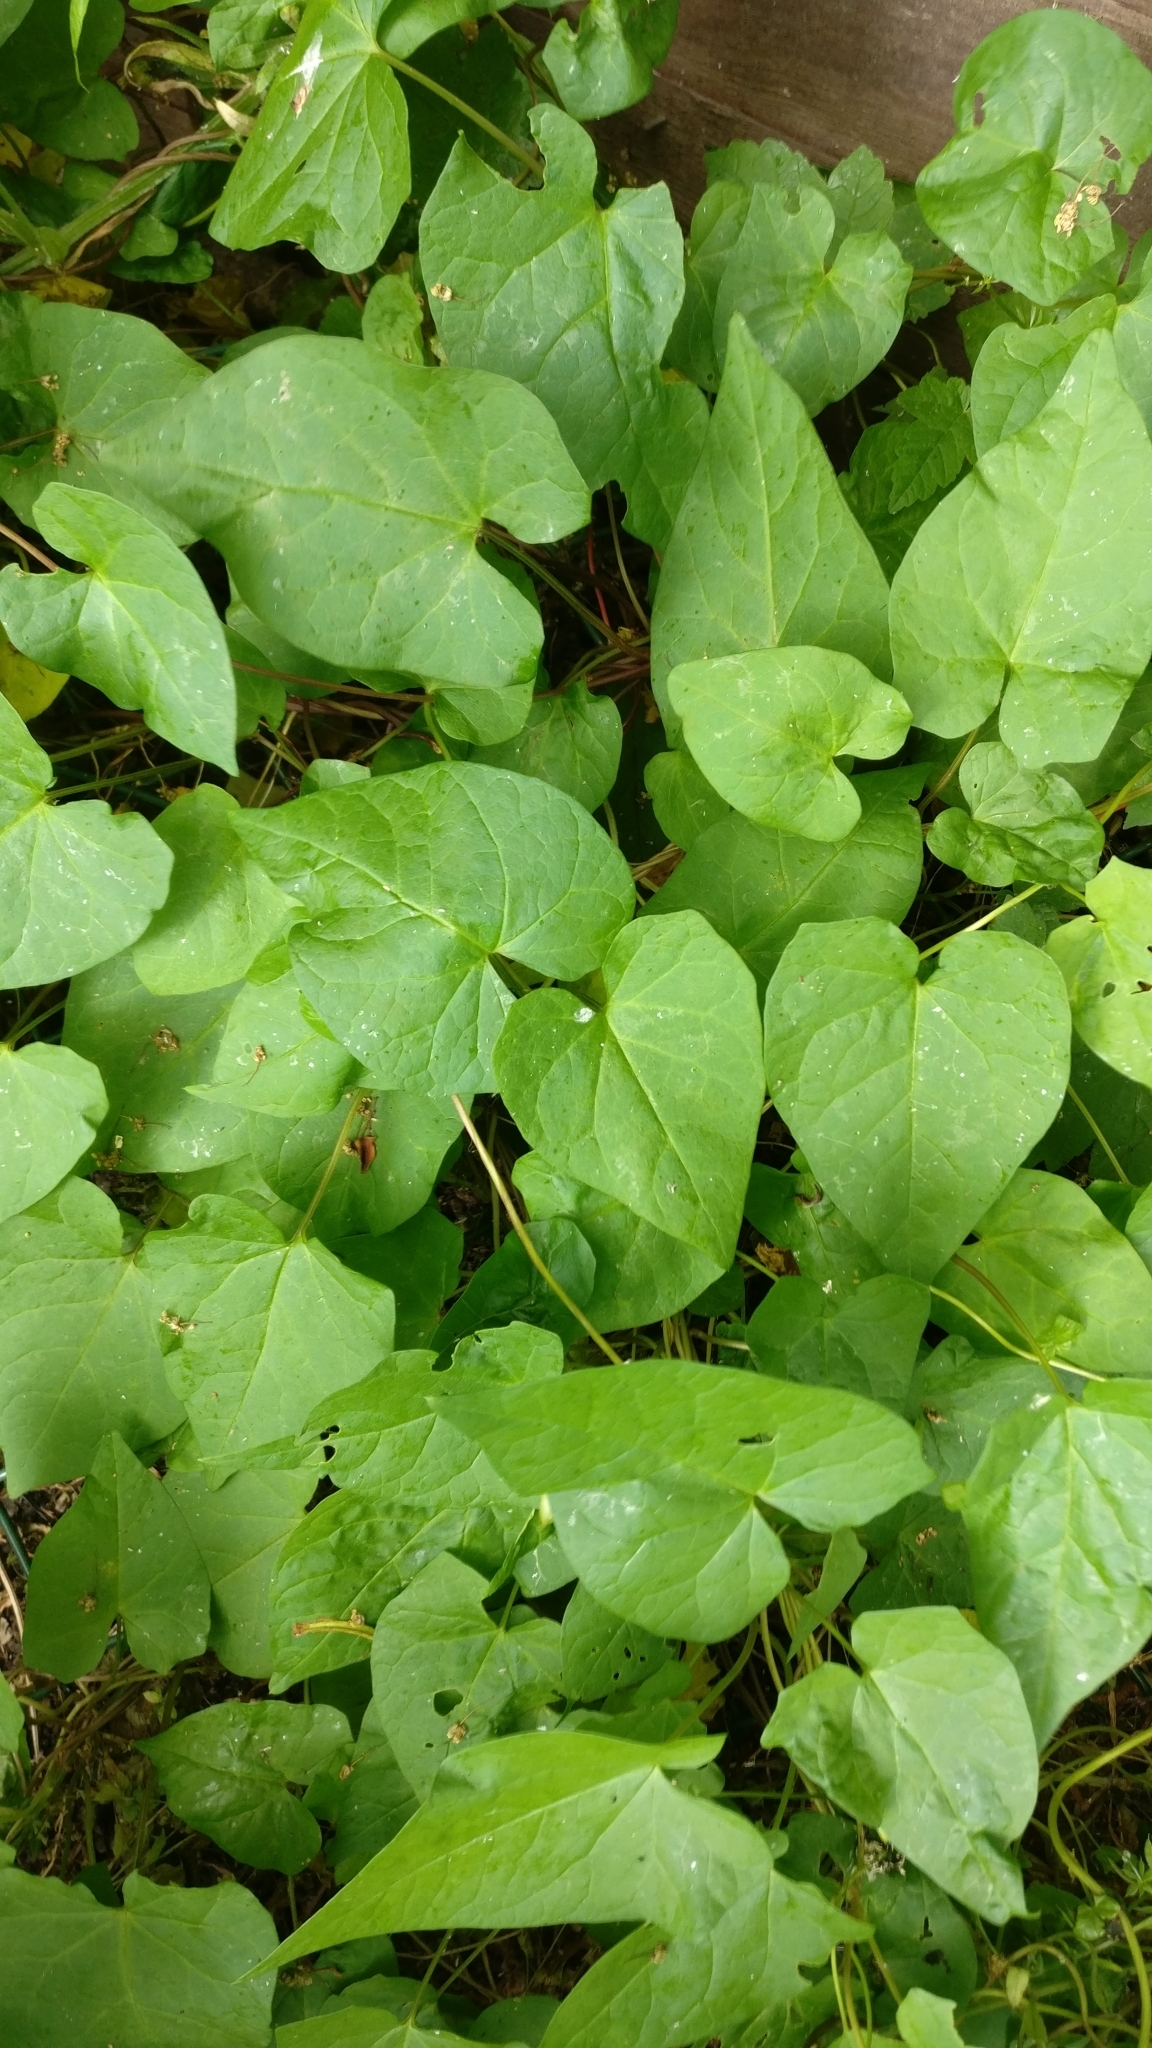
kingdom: Plantae
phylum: Tracheophyta
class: Magnoliopsida
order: Solanales
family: Convolvulaceae
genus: Calystegia
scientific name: Calystegia
